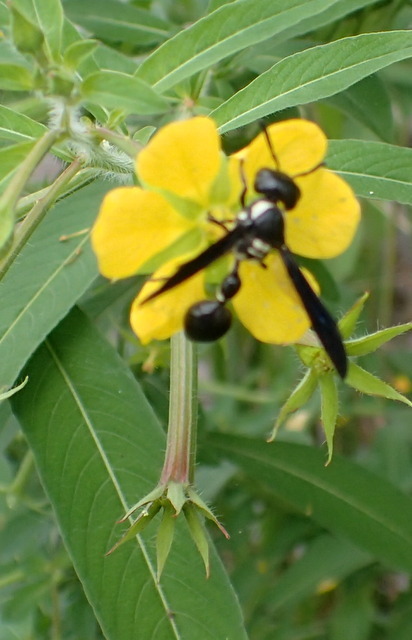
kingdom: Animalia
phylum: Arthropoda
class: Insecta
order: Hymenoptera
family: Eumenidae
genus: Zethus
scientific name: Zethus spinipes
